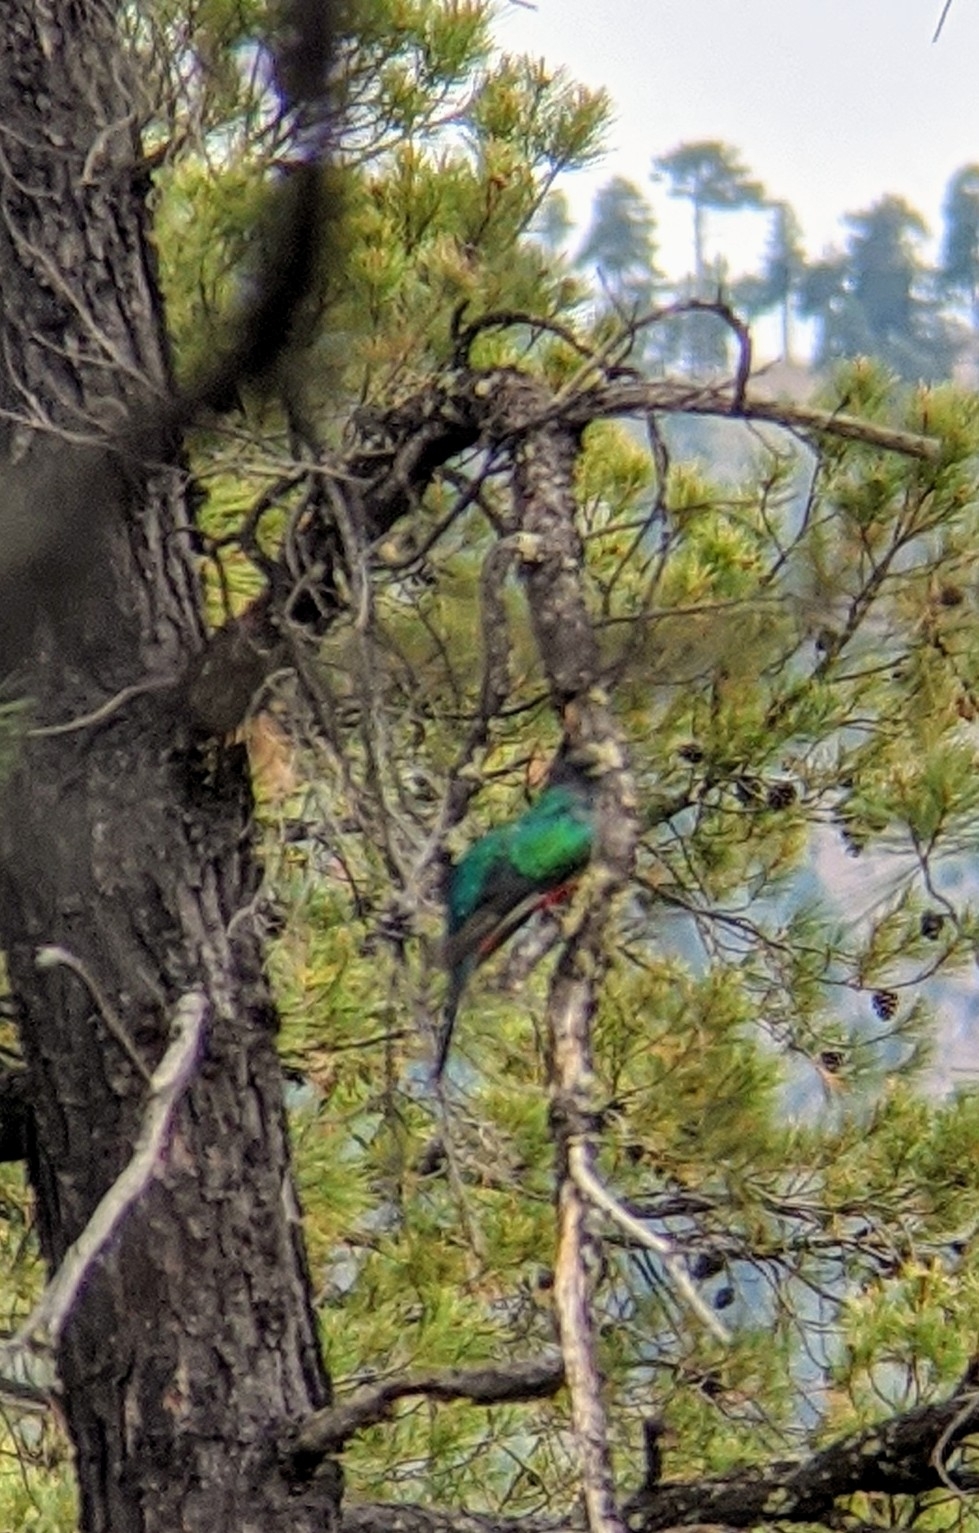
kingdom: Animalia
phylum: Chordata
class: Aves
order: Trogoniformes
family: Trogonidae
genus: Euptilotis
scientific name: Euptilotis neoxenus
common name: Eared quetzal
